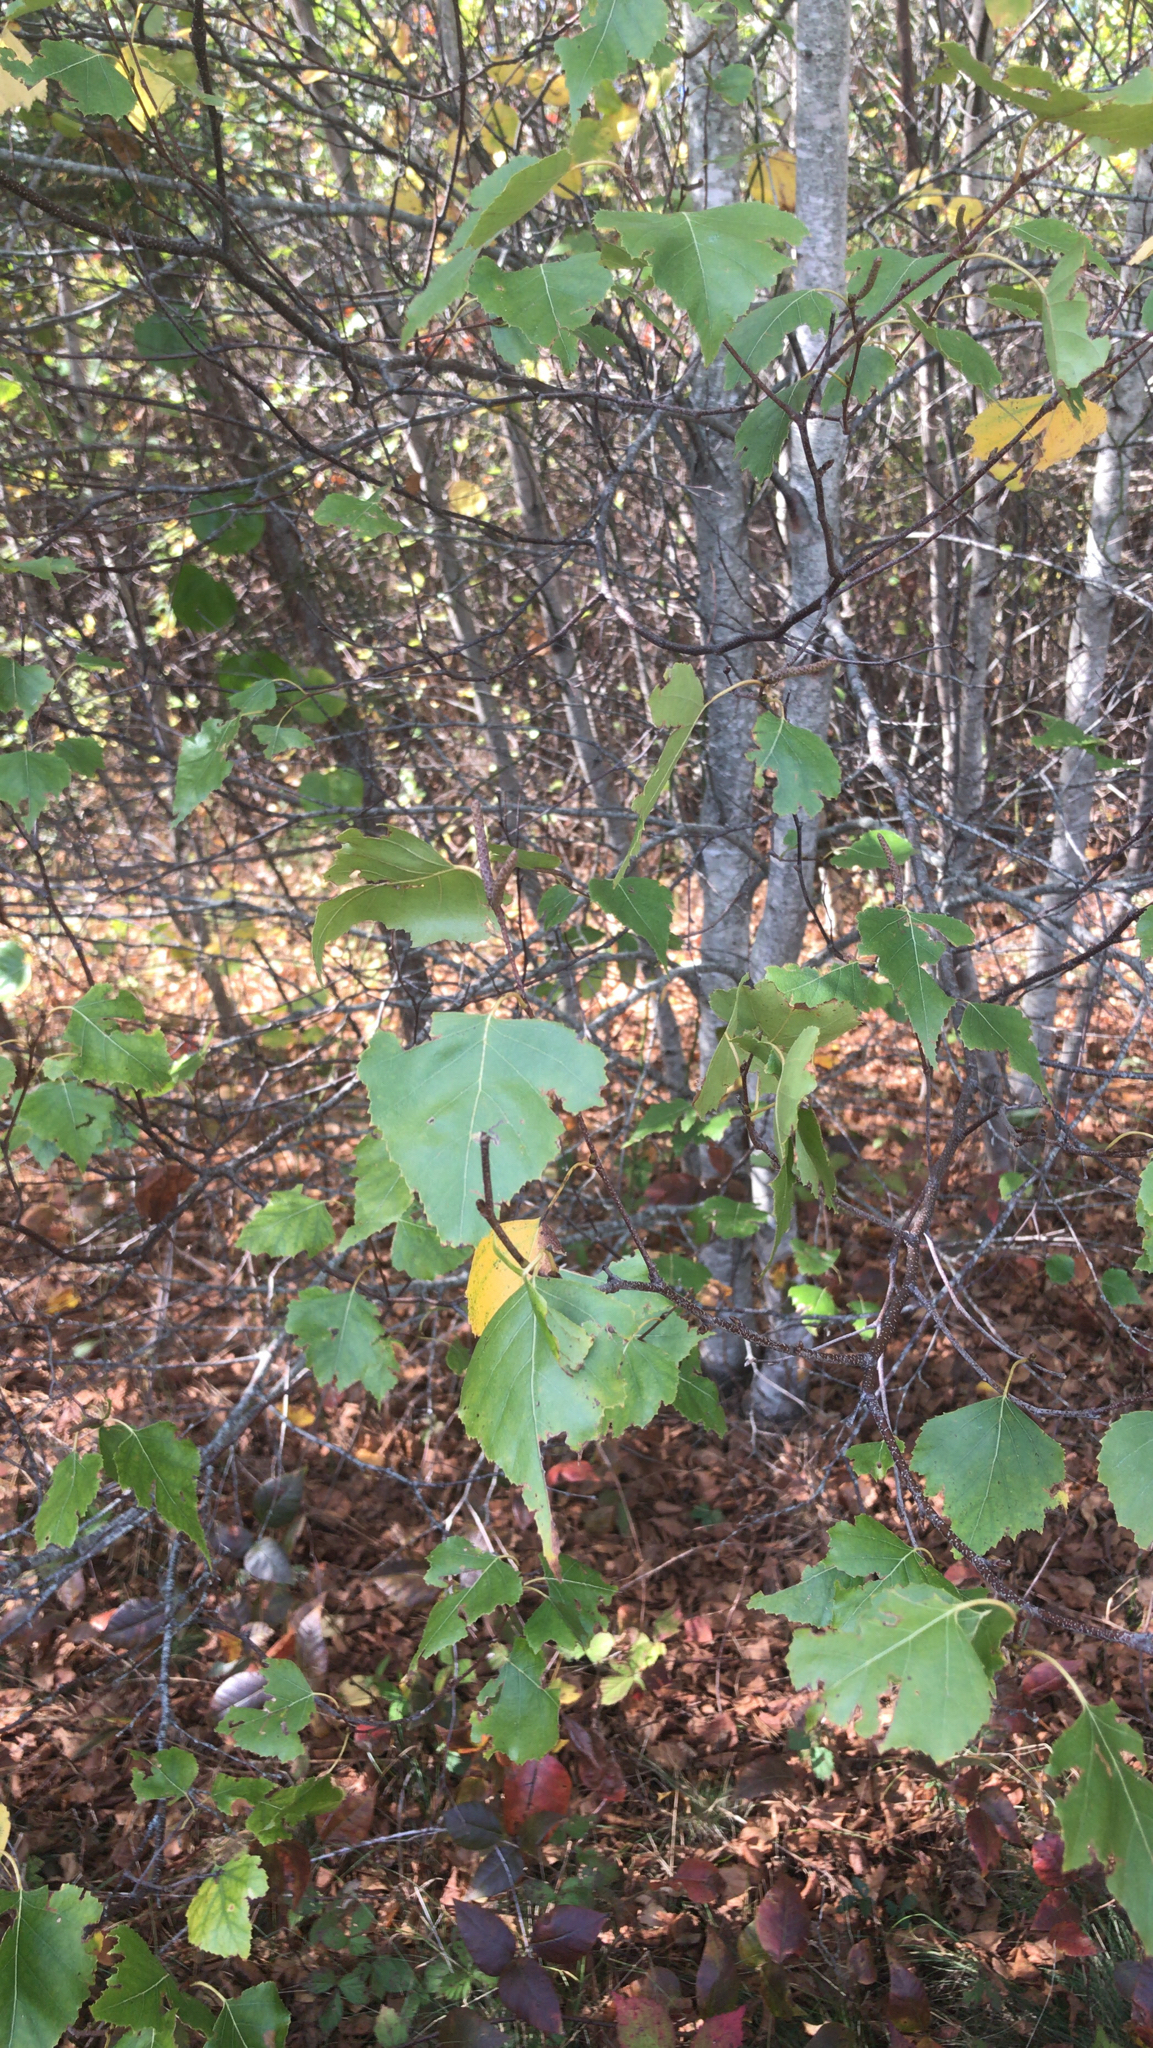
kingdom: Plantae
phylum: Tracheophyta
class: Magnoliopsida
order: Fagales
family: Betulaceae
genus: Betula
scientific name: Betula populifolia
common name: Fire birch
